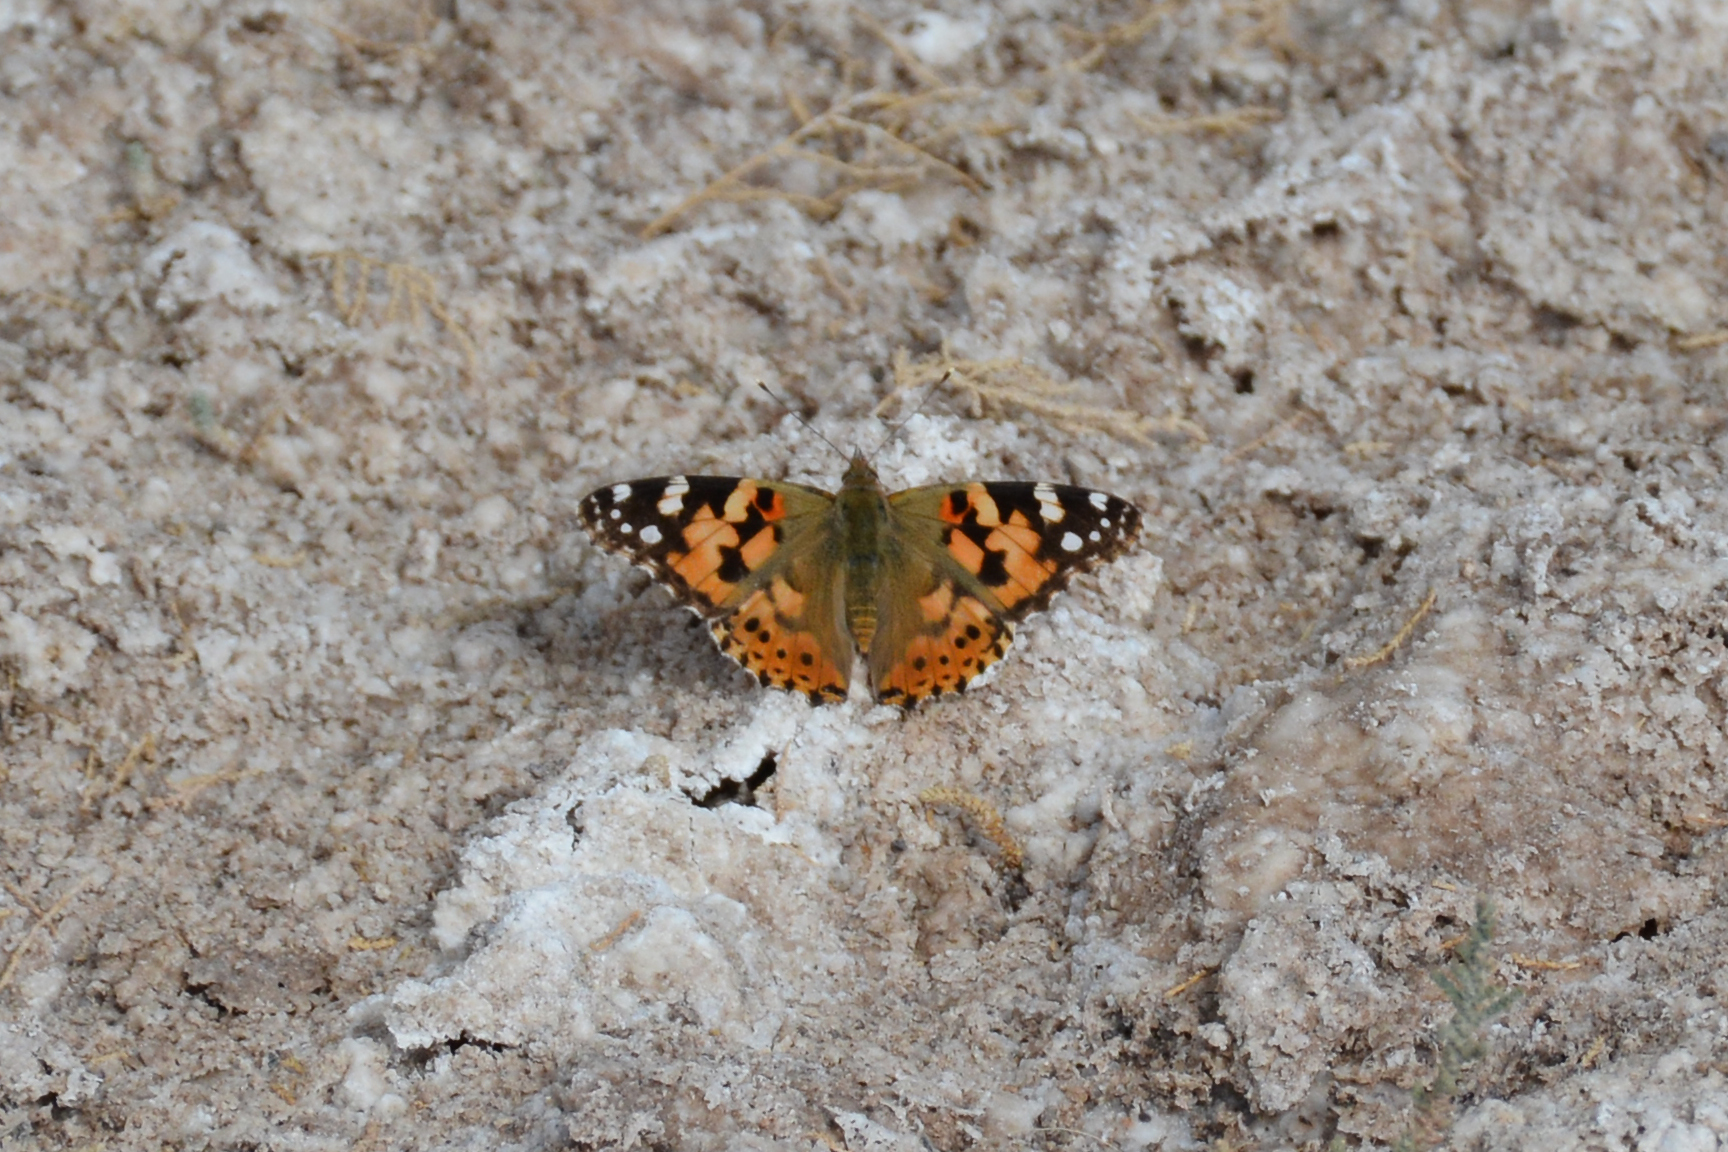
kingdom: Animalia
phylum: Arthropoda
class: Insecta
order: Lepidoptera
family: Nymphalidae
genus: Vanessa
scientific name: Vanessa cardui
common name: Painted lady
